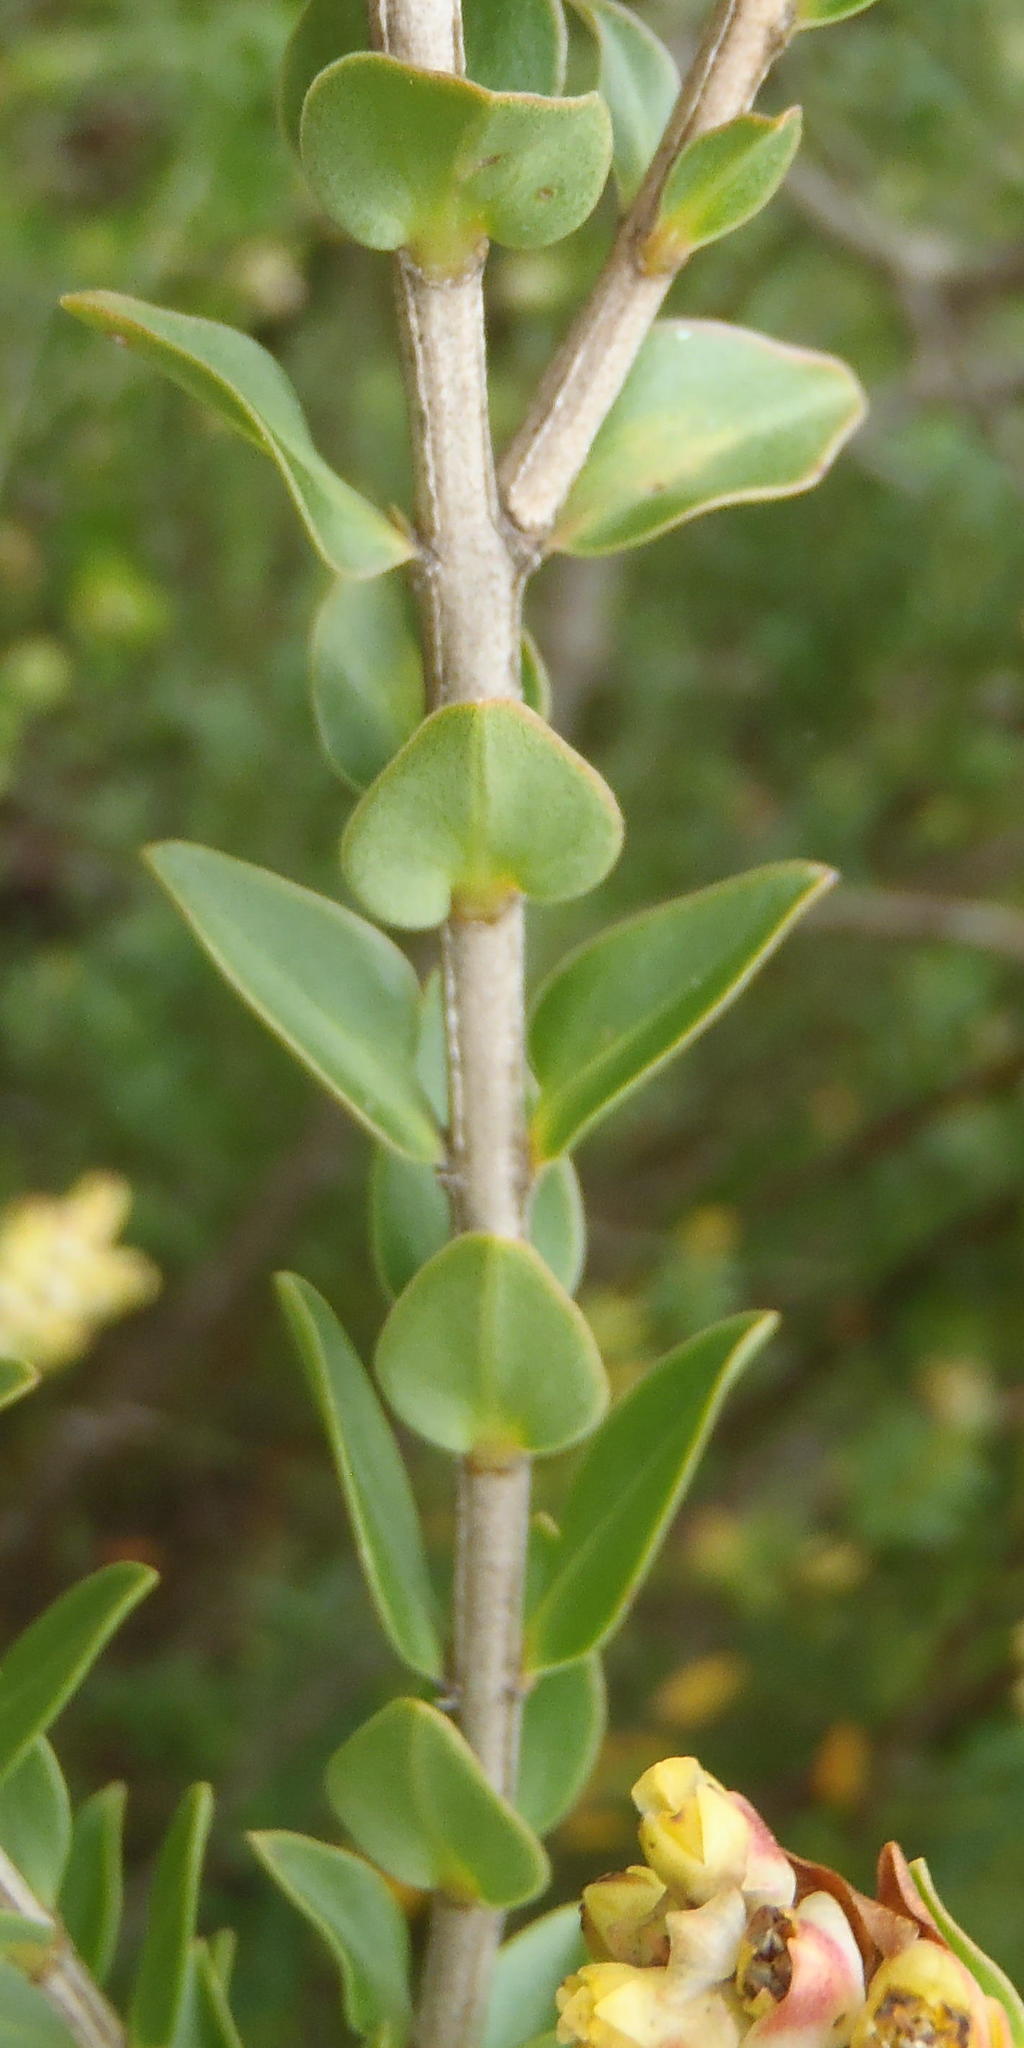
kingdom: Plantae
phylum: Tracheophyta
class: Magnoliopsida
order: Myrtales
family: Penaeaceae
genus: Penaea
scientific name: Penaea cneorum
